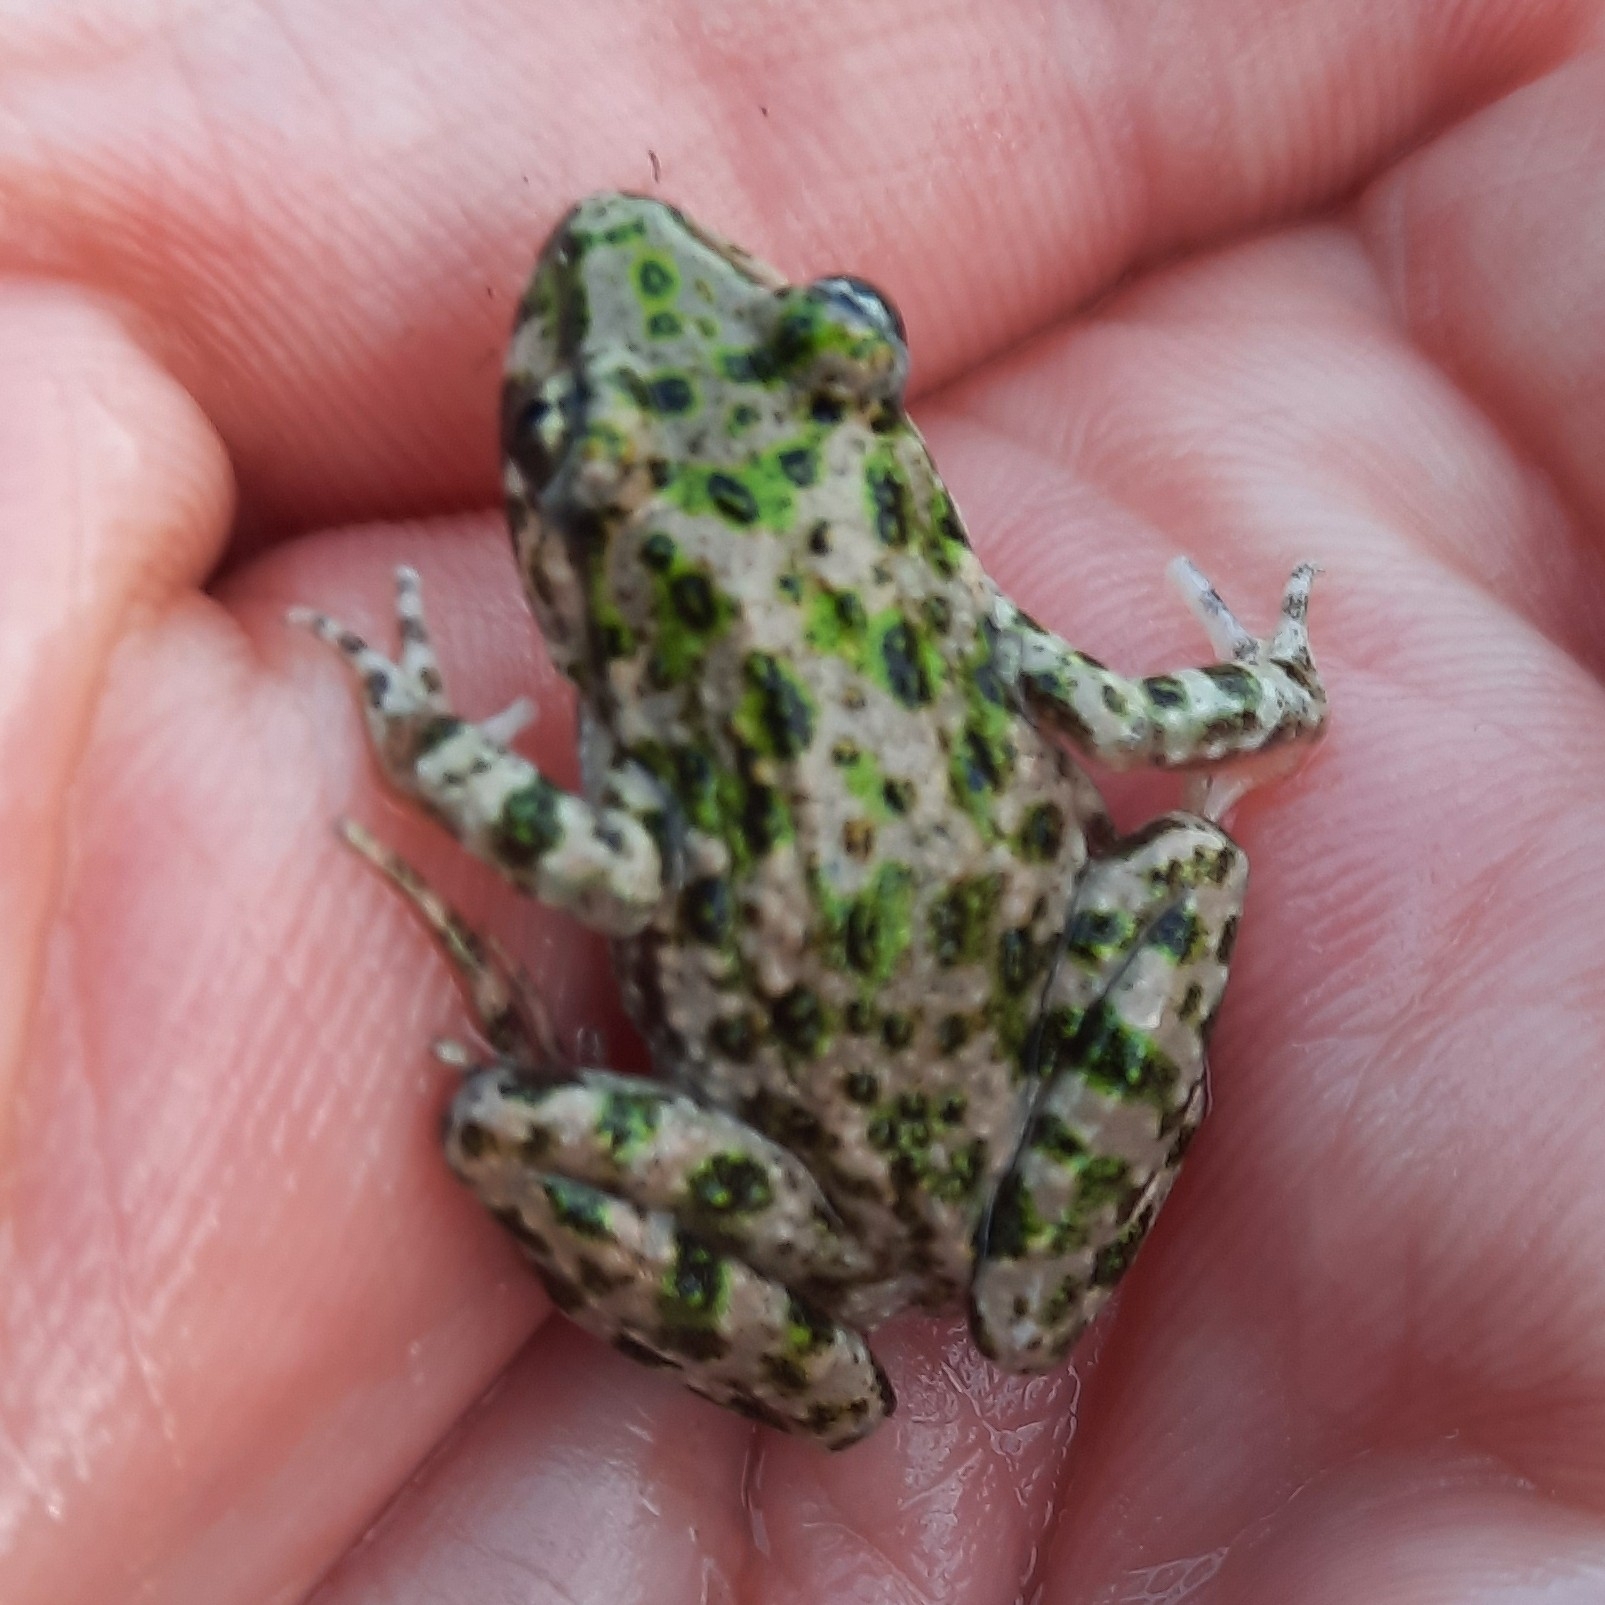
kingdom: Animalia
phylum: Chordata
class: Amphibia
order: Anura
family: Pelodytidae
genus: Pelodytes
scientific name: Pelodytes punctatus
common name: Parsley frog
